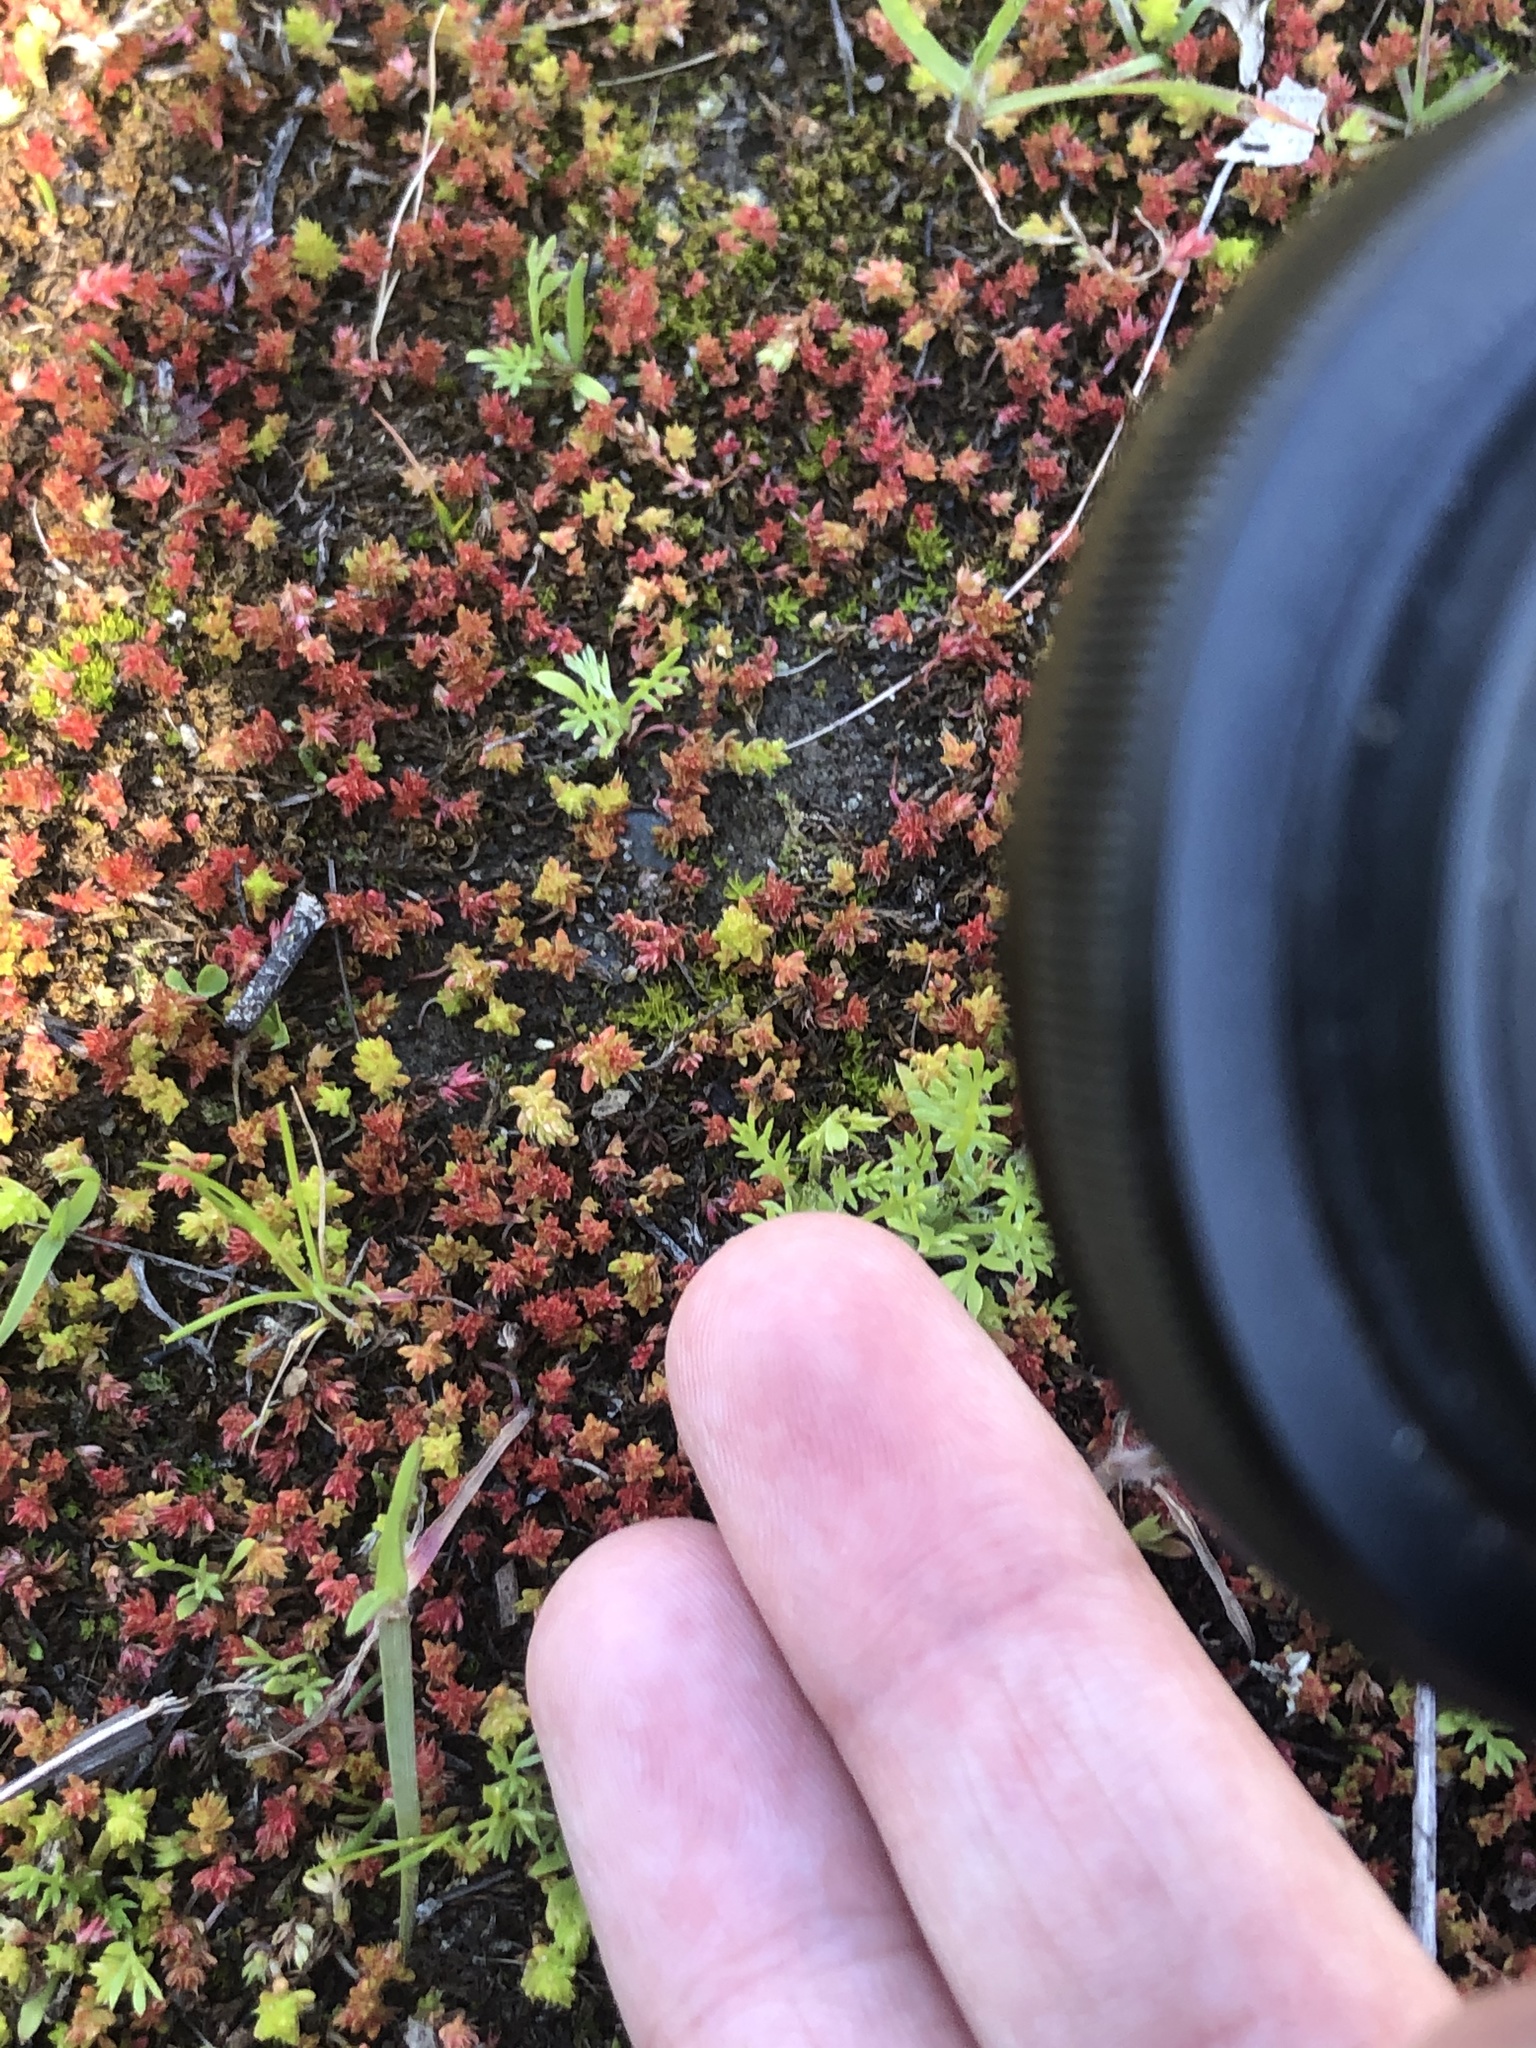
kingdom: Plantae
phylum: Tracheophyta
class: Magnoliopsida
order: Saxifragales
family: Crassulaceae
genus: Crassula
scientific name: Crassula tillaea
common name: Mossy stonecrop
